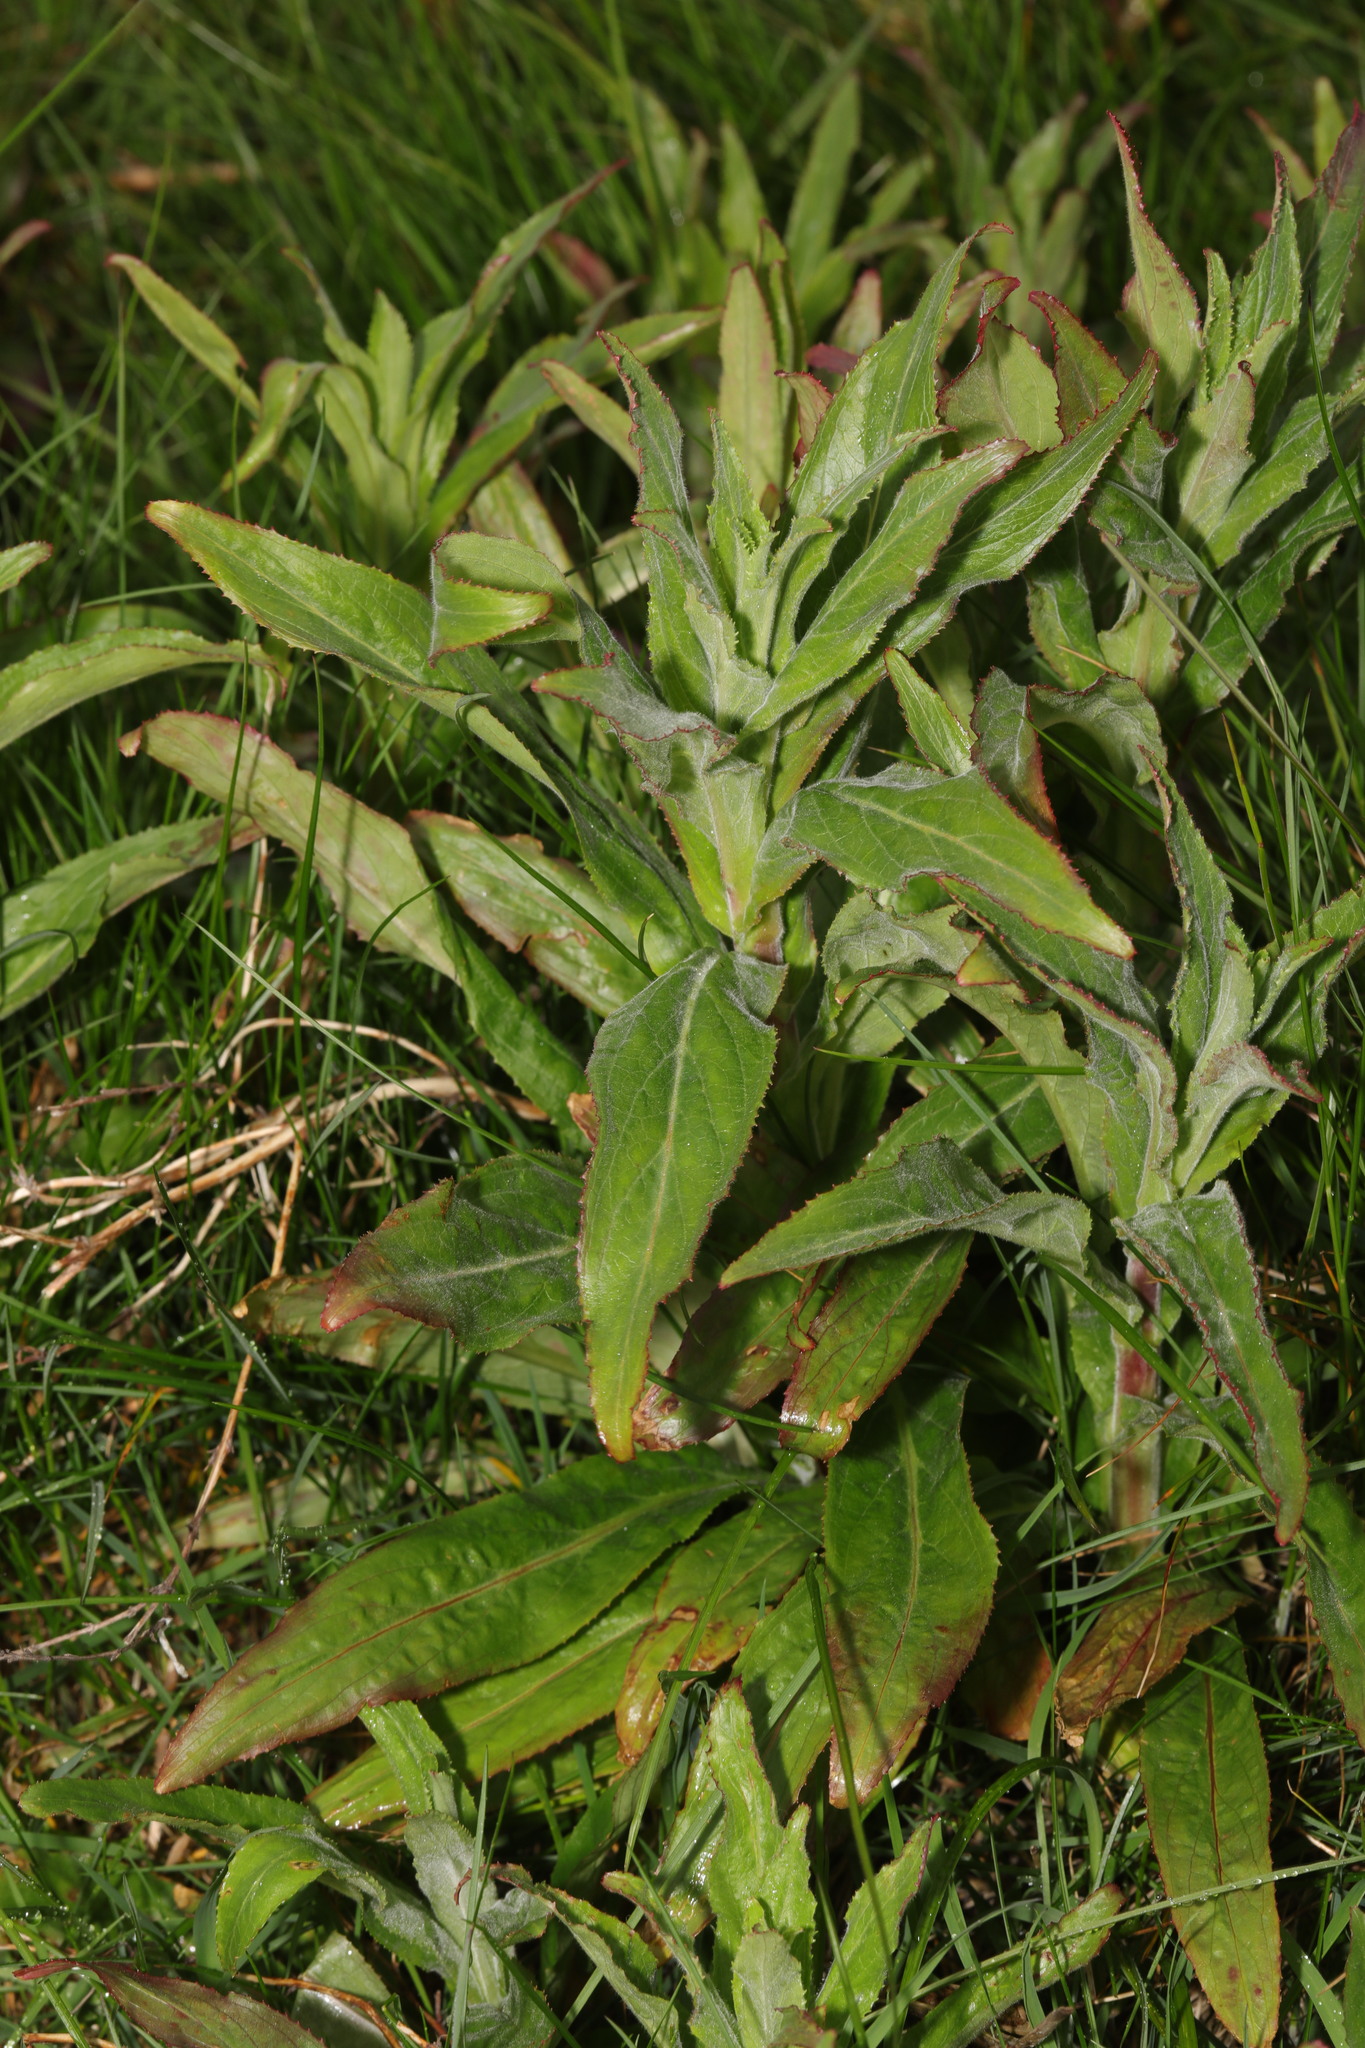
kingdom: Plantae
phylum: Tracheophyta
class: Magnoliopsida
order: Myrtales
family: Onagraceae
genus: Epilobium
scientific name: Epilobium hirsutum
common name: Great willowherb
